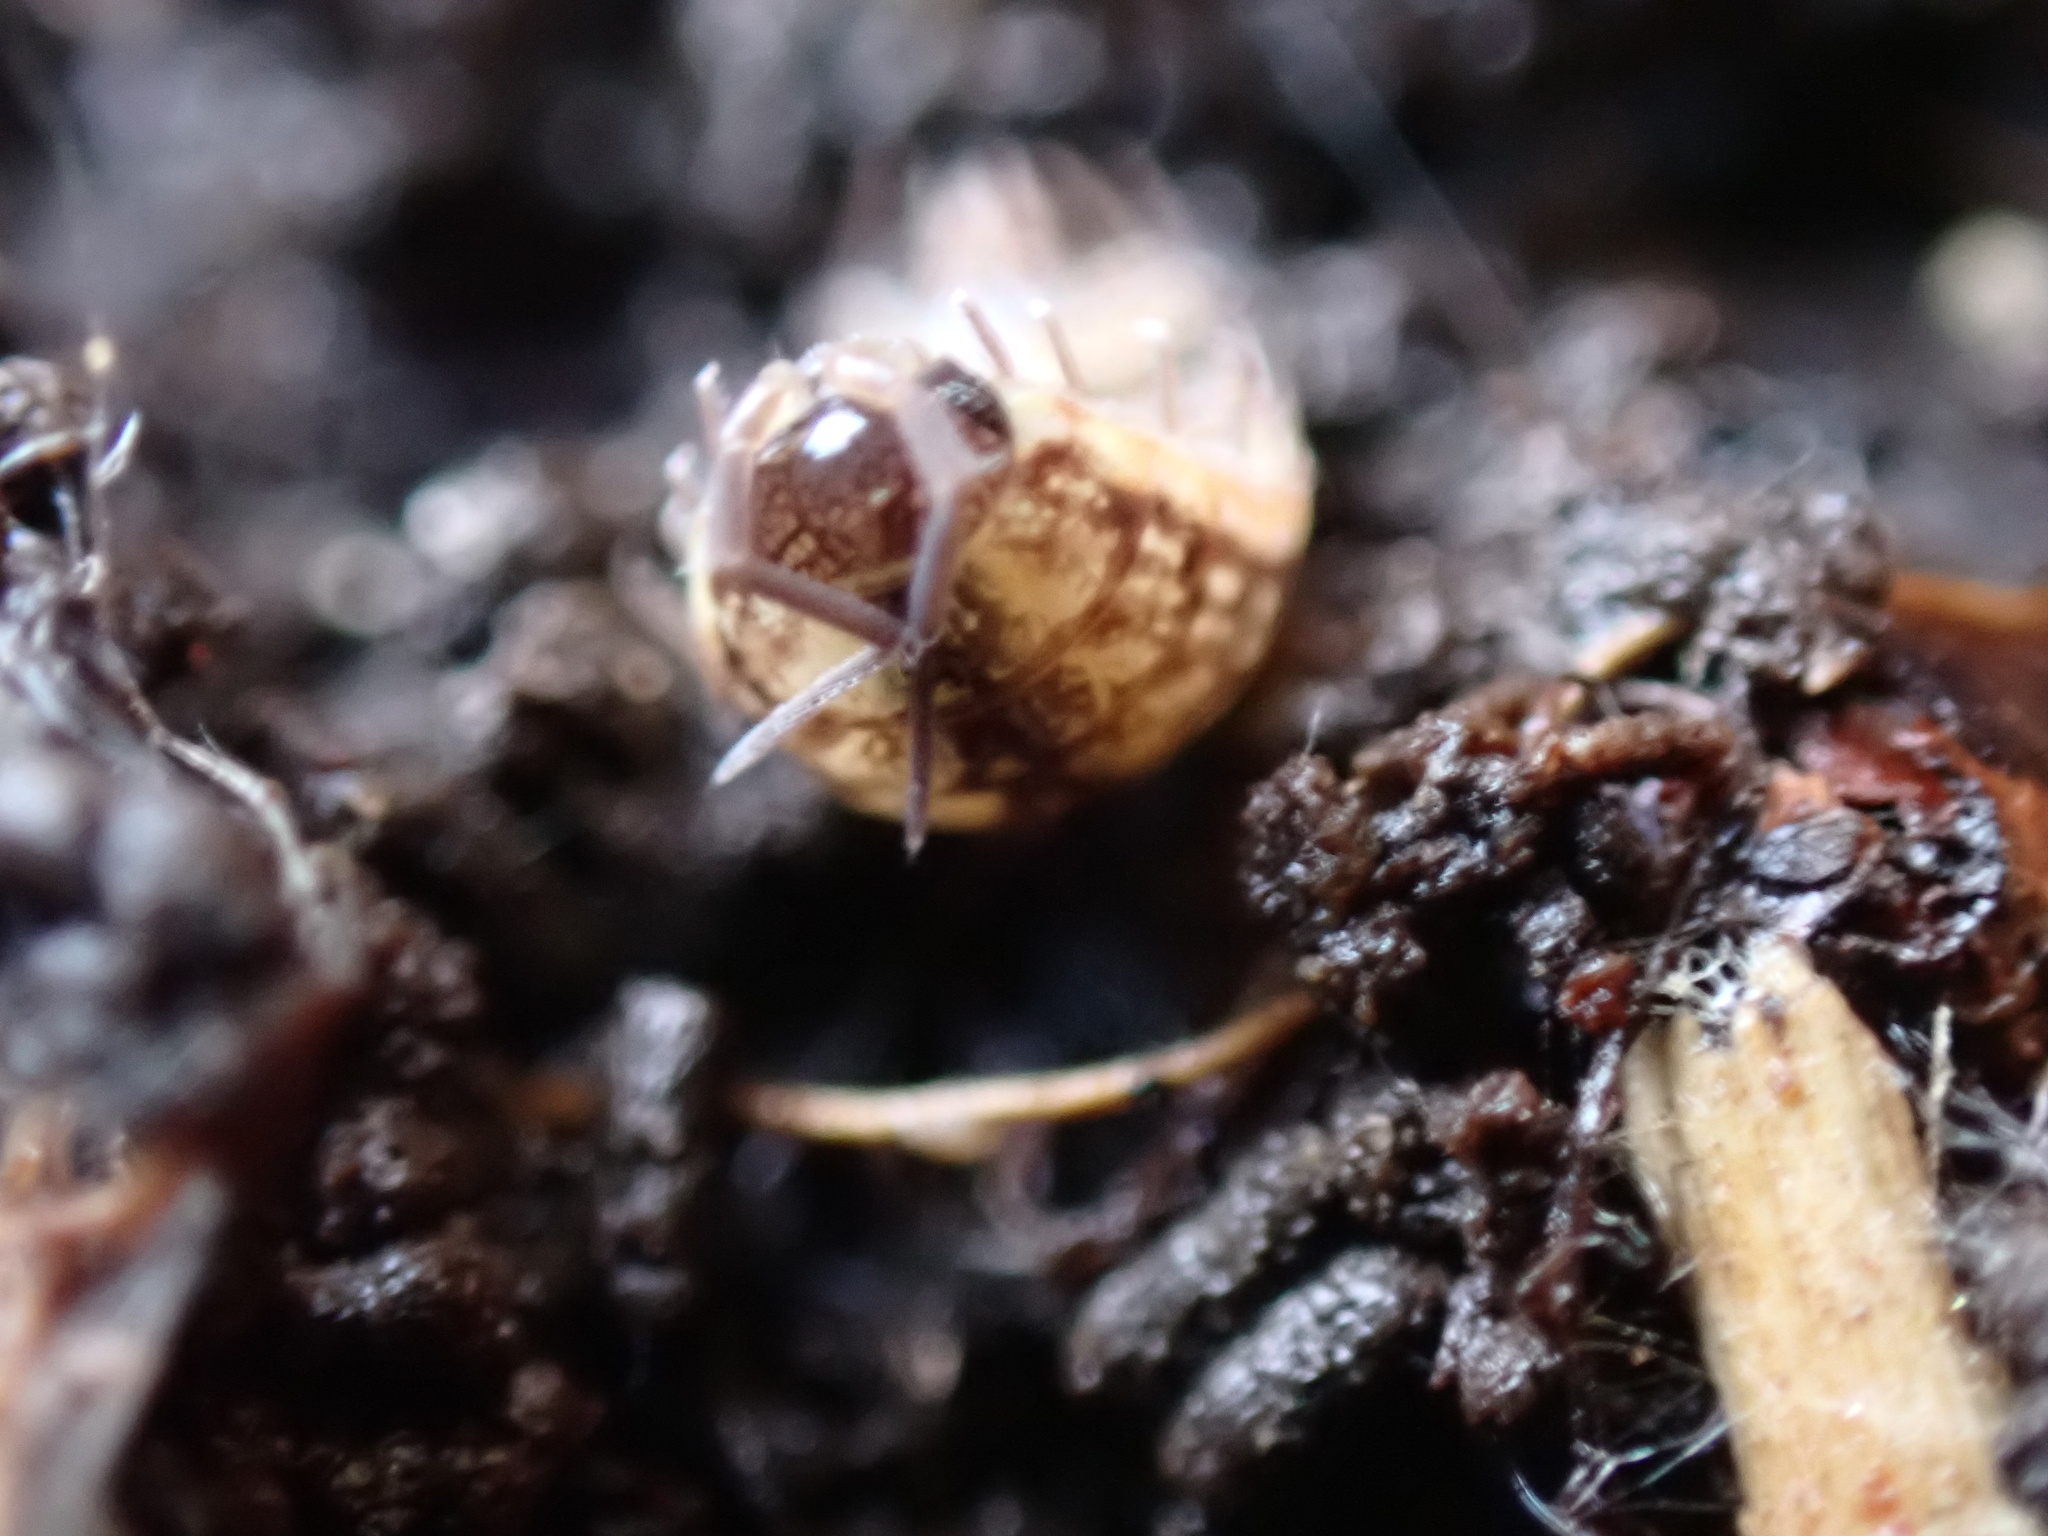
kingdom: Animalia
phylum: Arthropoda
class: Malacostraca
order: Isopoda
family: Philosciidae
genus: Philoscia
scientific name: Philoscia muscorum
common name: Common striped woodlouse
